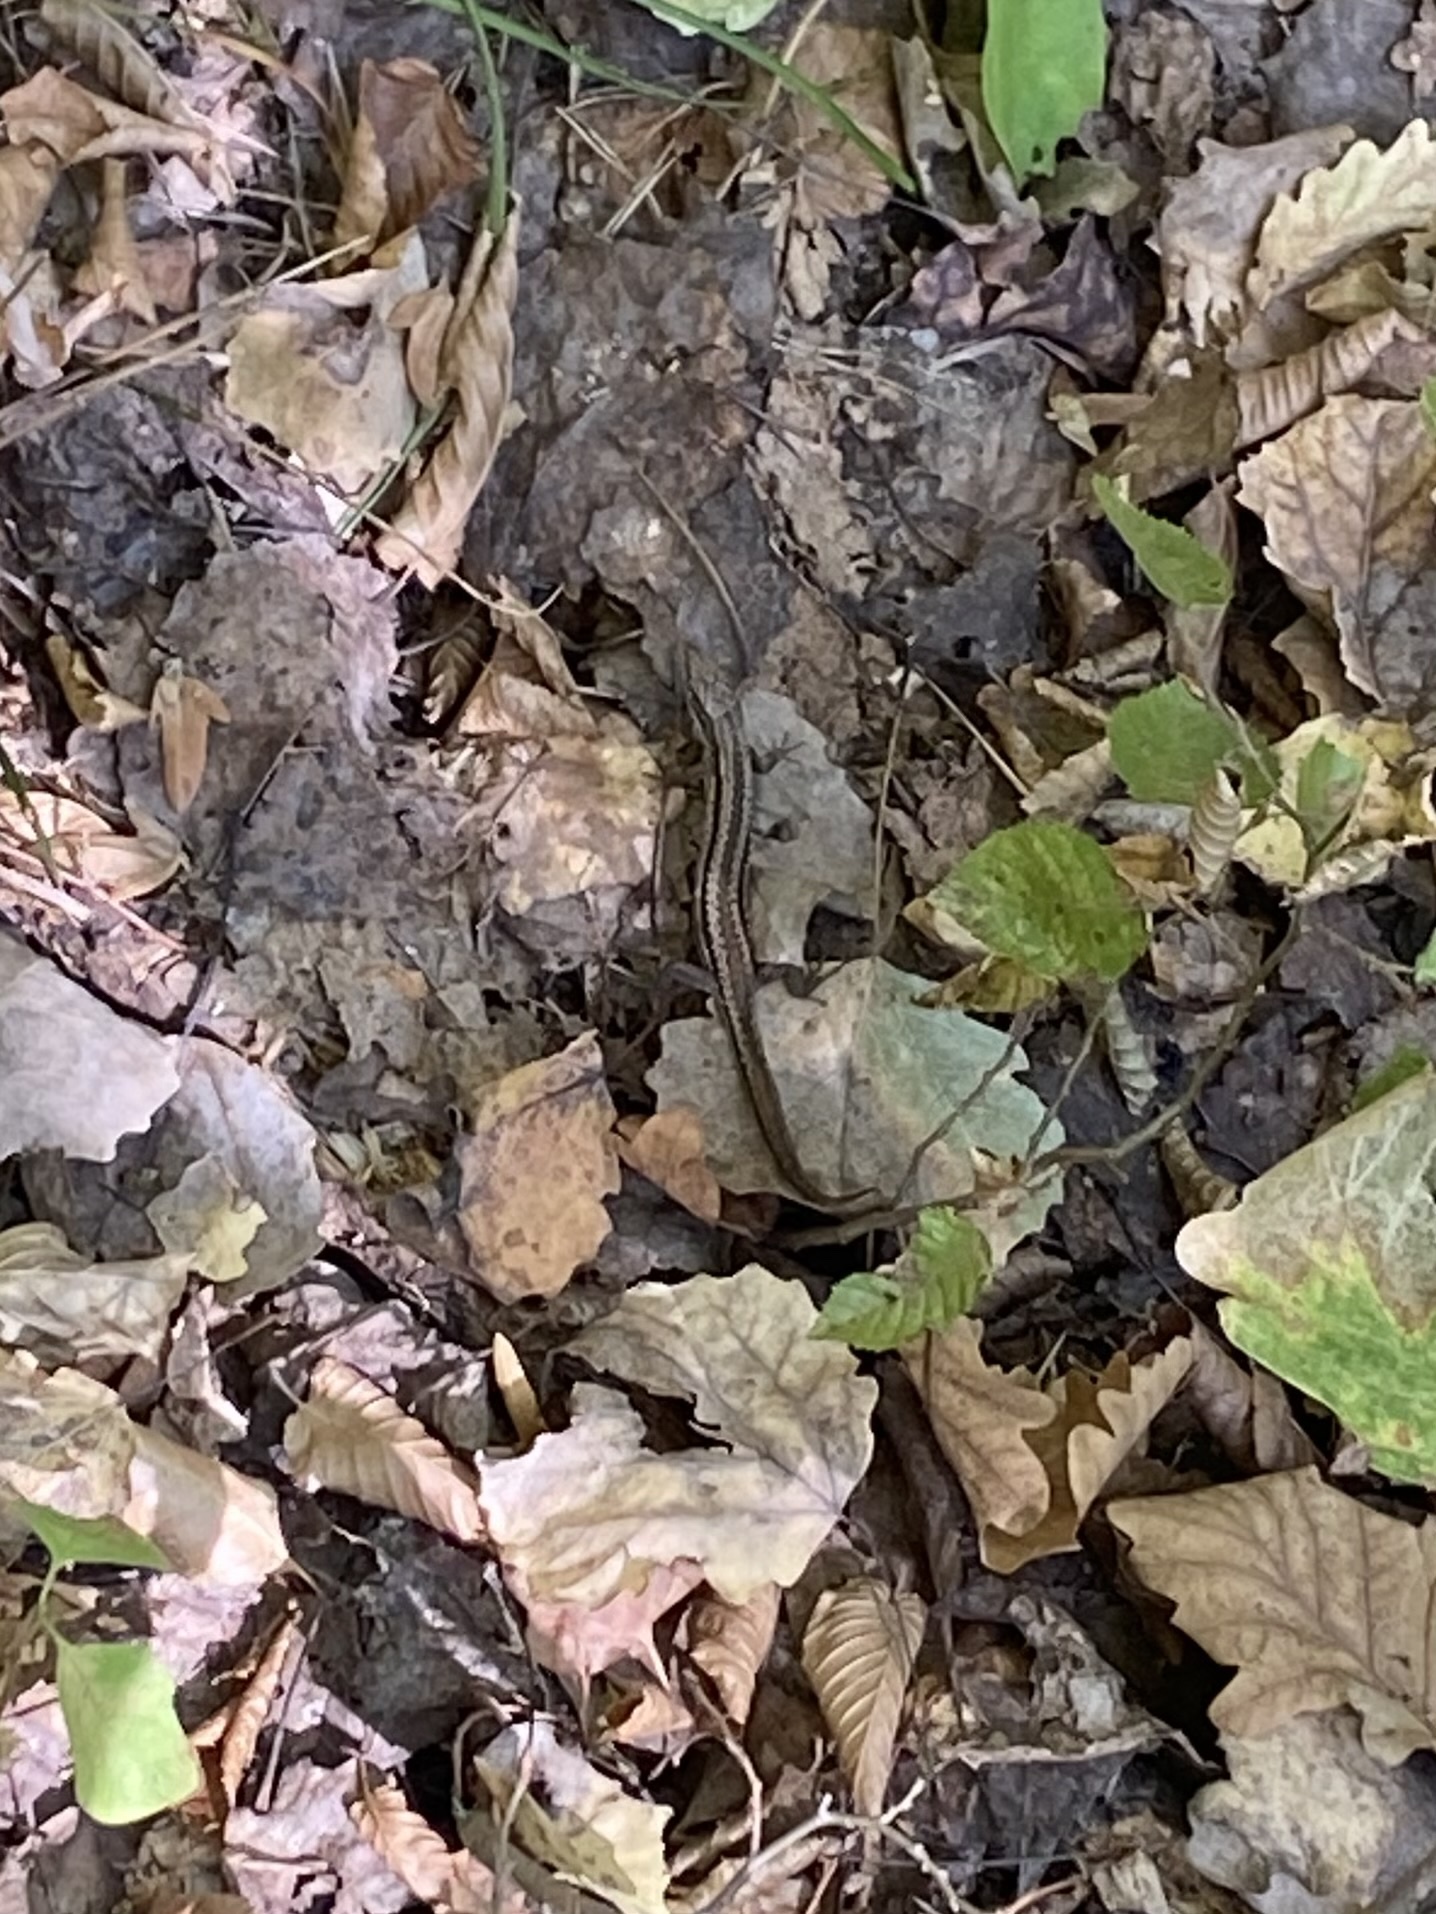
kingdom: Animalia
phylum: Chordata
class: Squamata
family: Lacertidae
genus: Darevskia
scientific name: Darevskia praticola
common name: Meadow lizard
